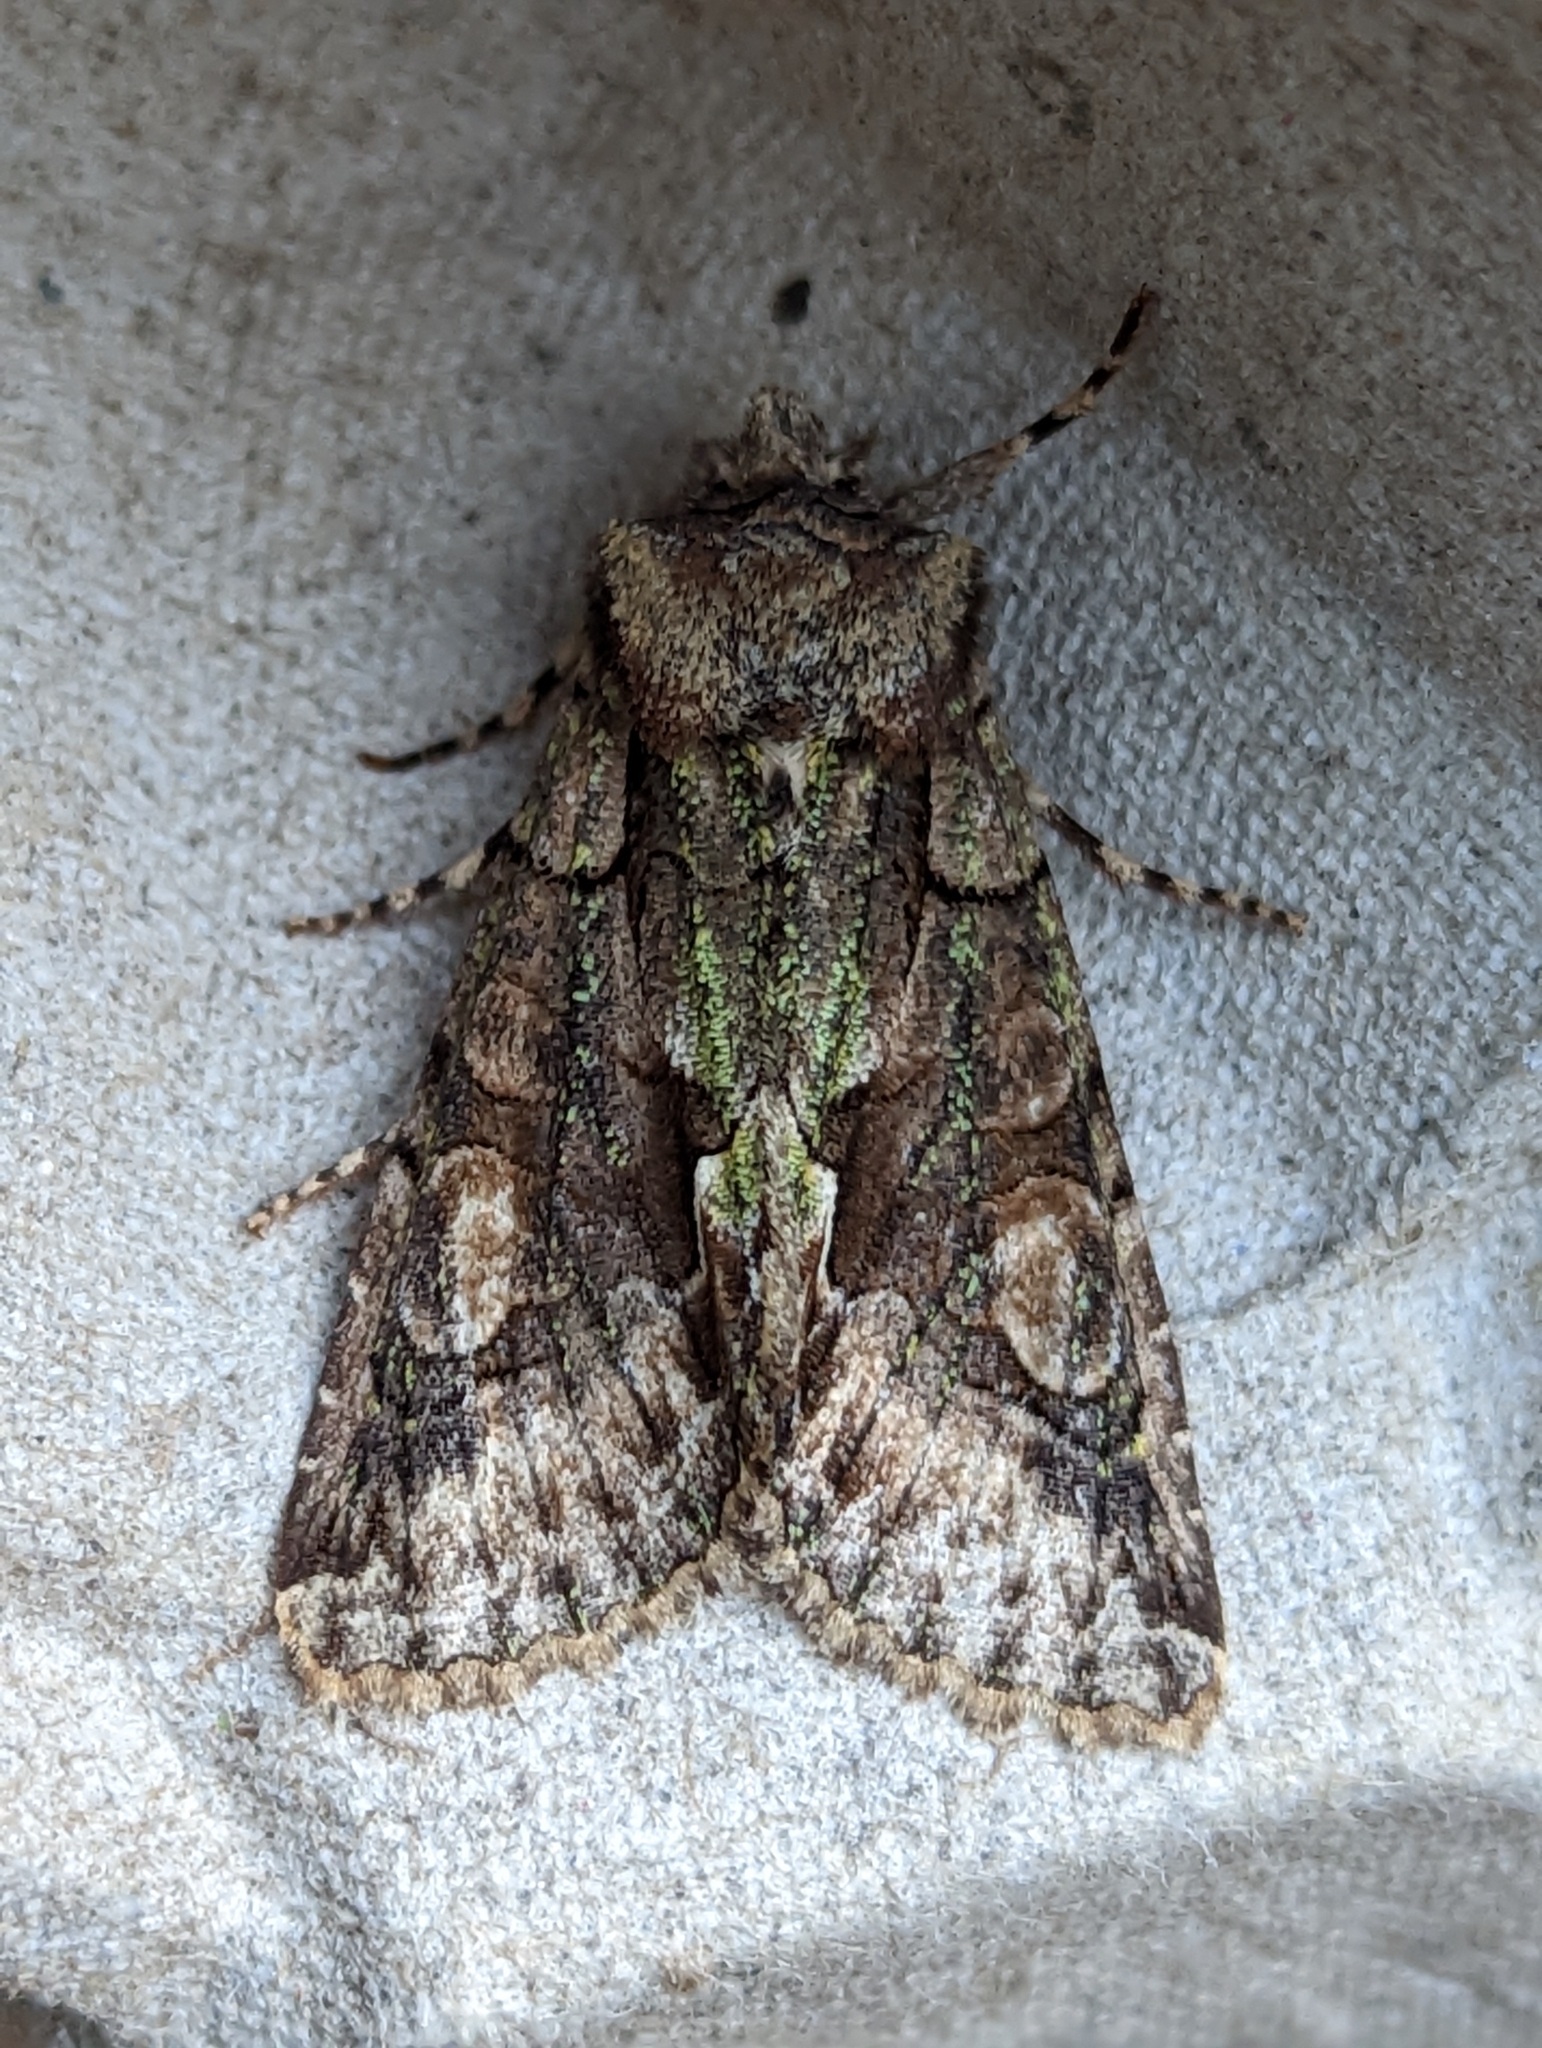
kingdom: Animalia
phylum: Arthropoda
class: Insecta
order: Lepidoptera
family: Noctuidae
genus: Allophyes
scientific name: Allophyes oxyacanthae
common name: Green-brindled crescent
